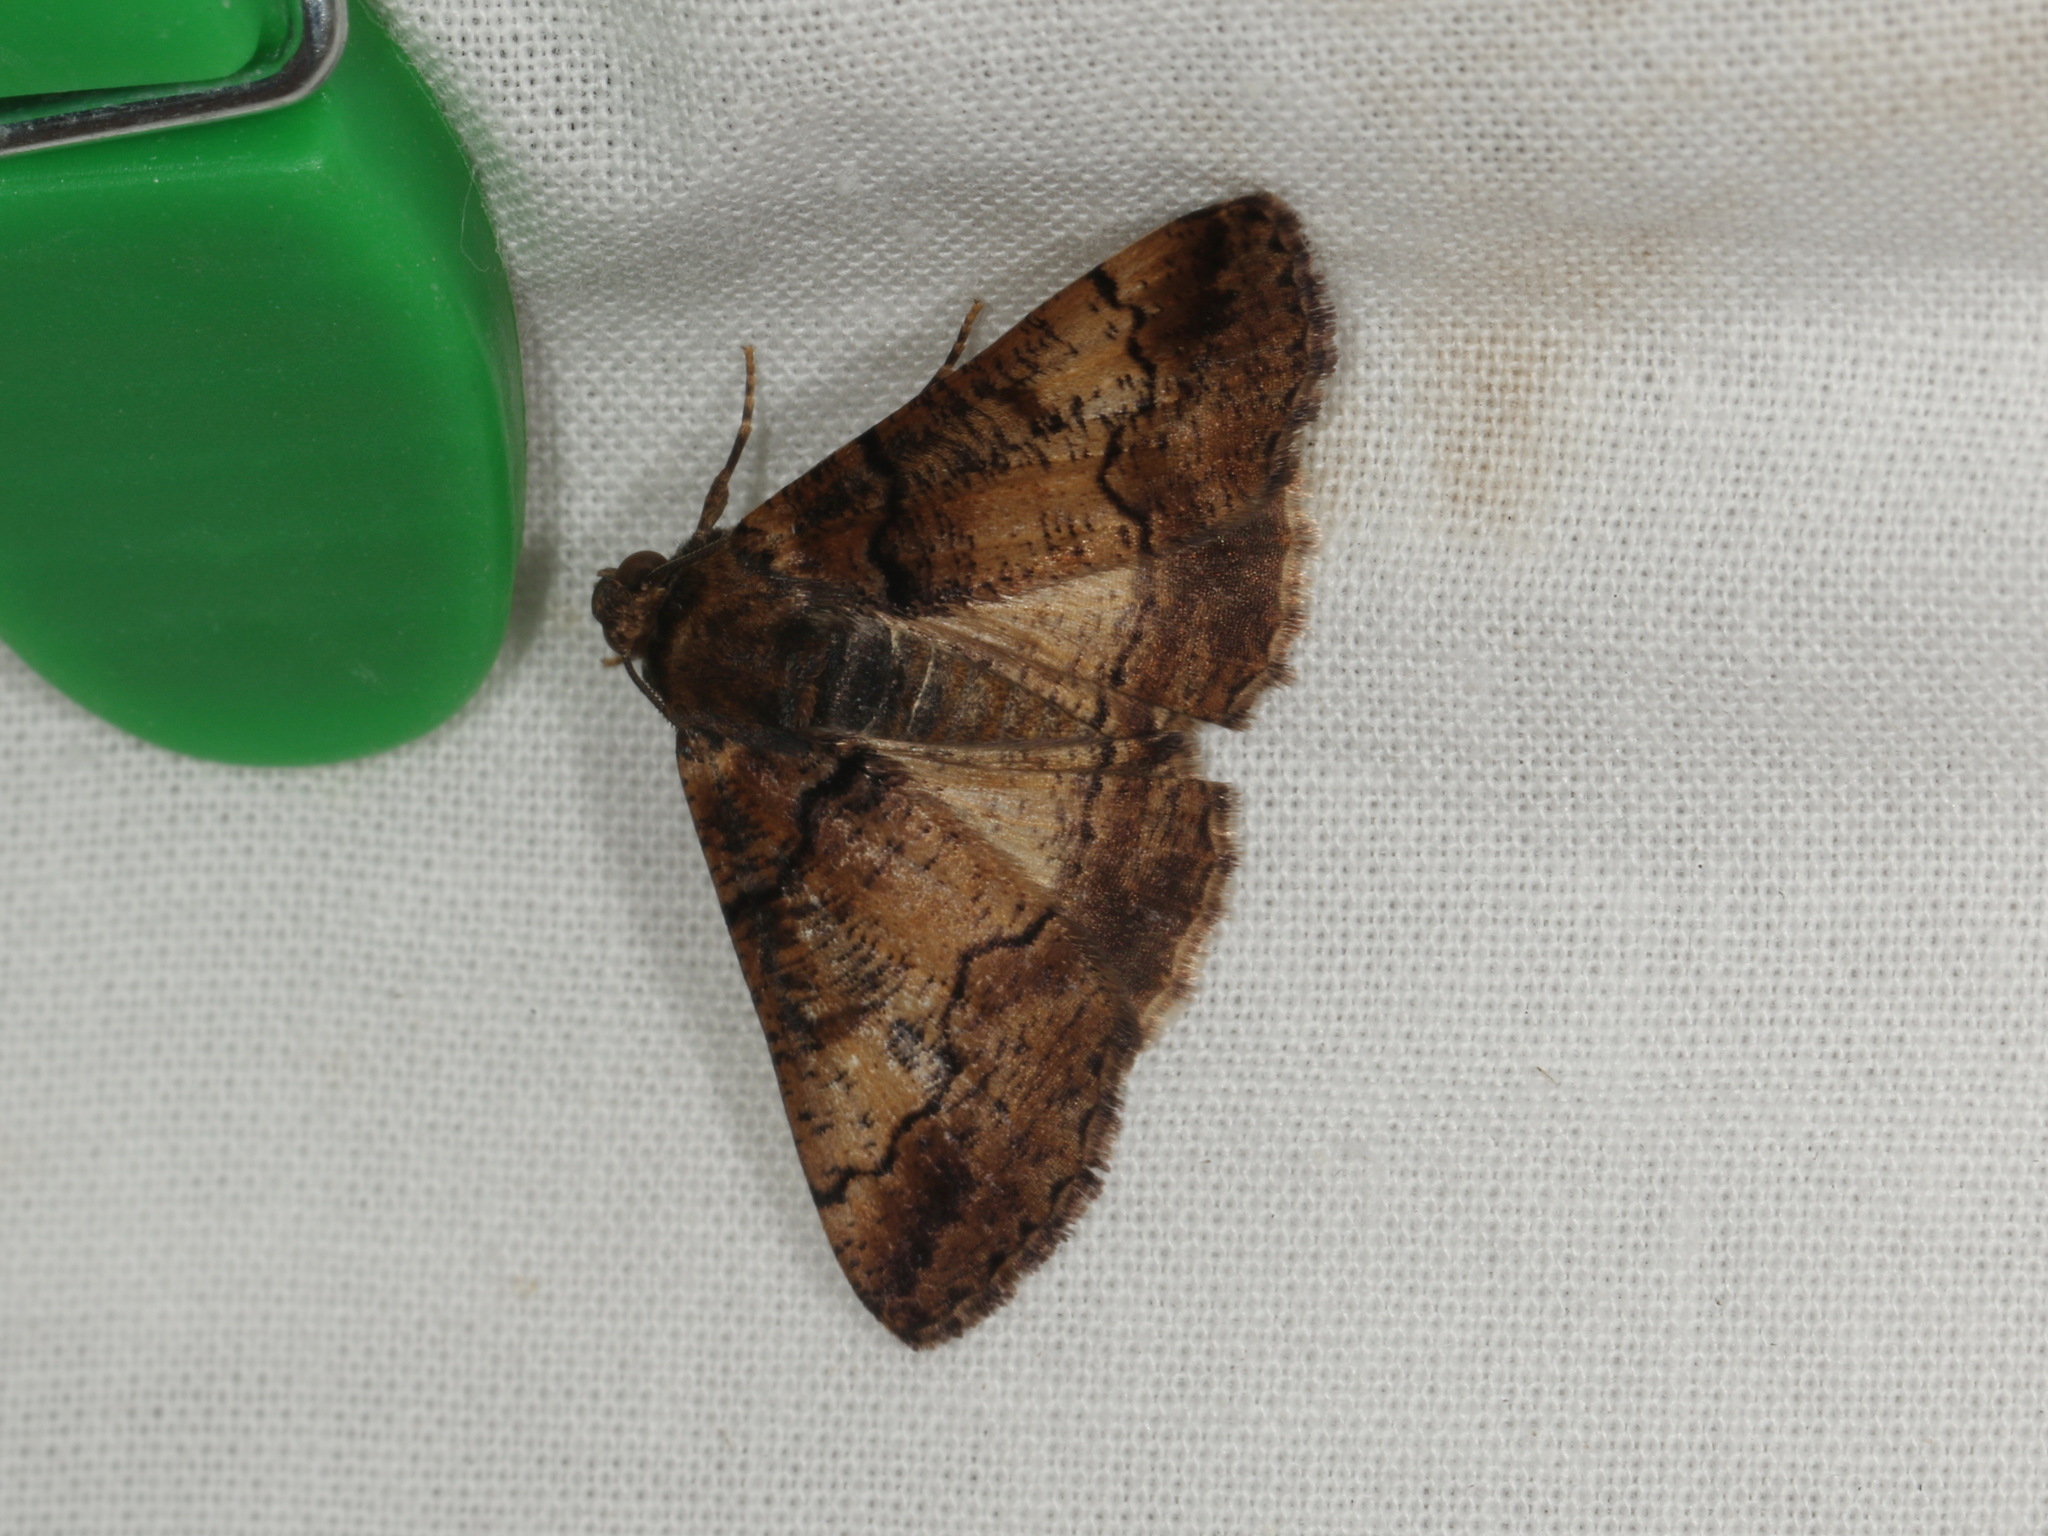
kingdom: Animalia
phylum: Arthropoda
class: Insecta
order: Lepidoptera
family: Geometridae
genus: Gastrinopa
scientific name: Gastrinopa xylistis
